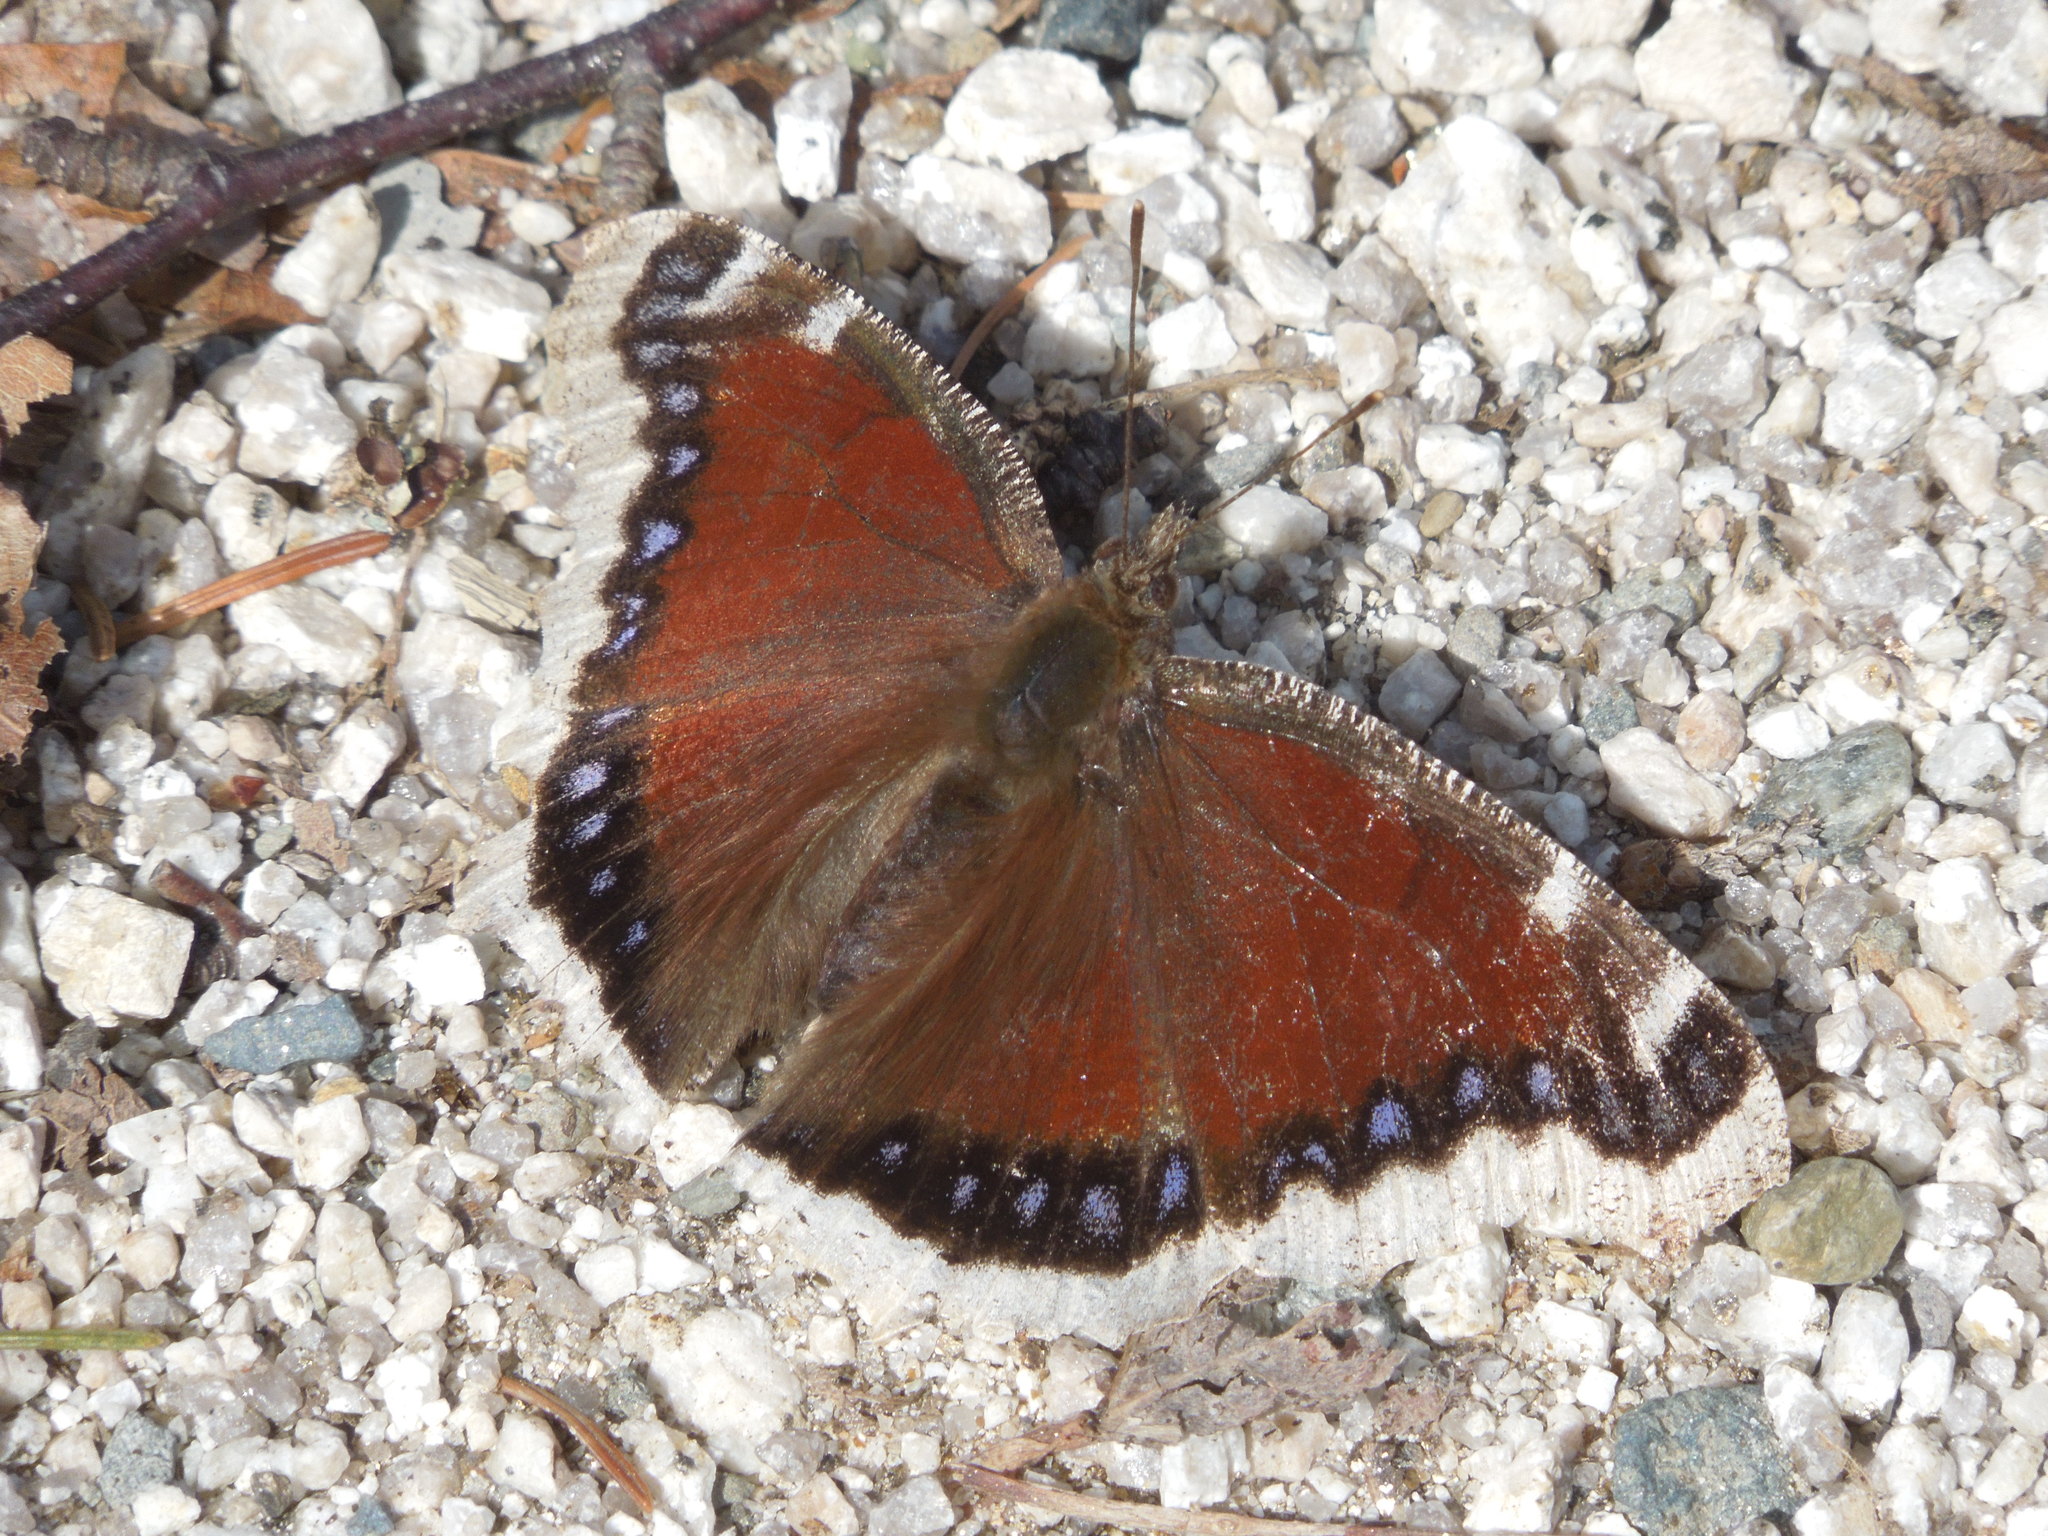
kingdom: Animalia
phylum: Arthropoda
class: Insecta
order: Lepidoptera
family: Nymphalidae
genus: Nymphalis
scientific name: Nymphalis antiopa
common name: Camberwell beauty
